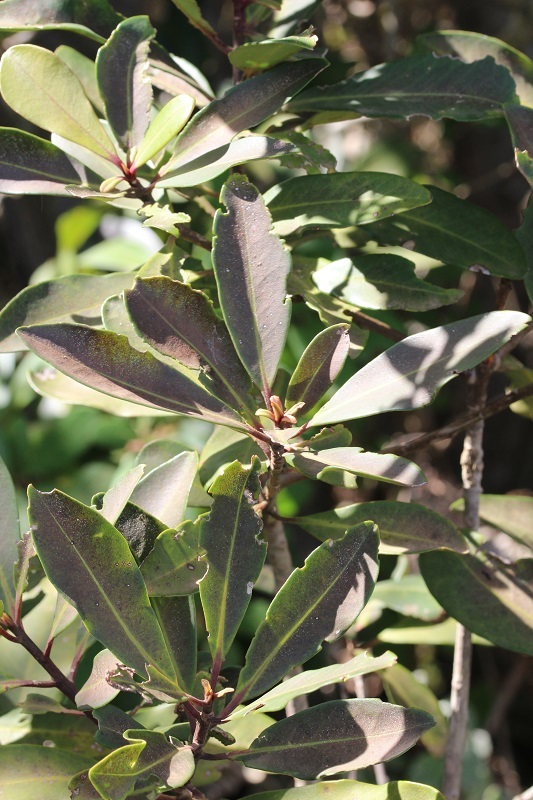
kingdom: Plantae
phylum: Tracheophyta
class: Magnoliopsida
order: Ericales
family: Primulaceae
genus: Myrsine
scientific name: Myrsine melanophloeos
